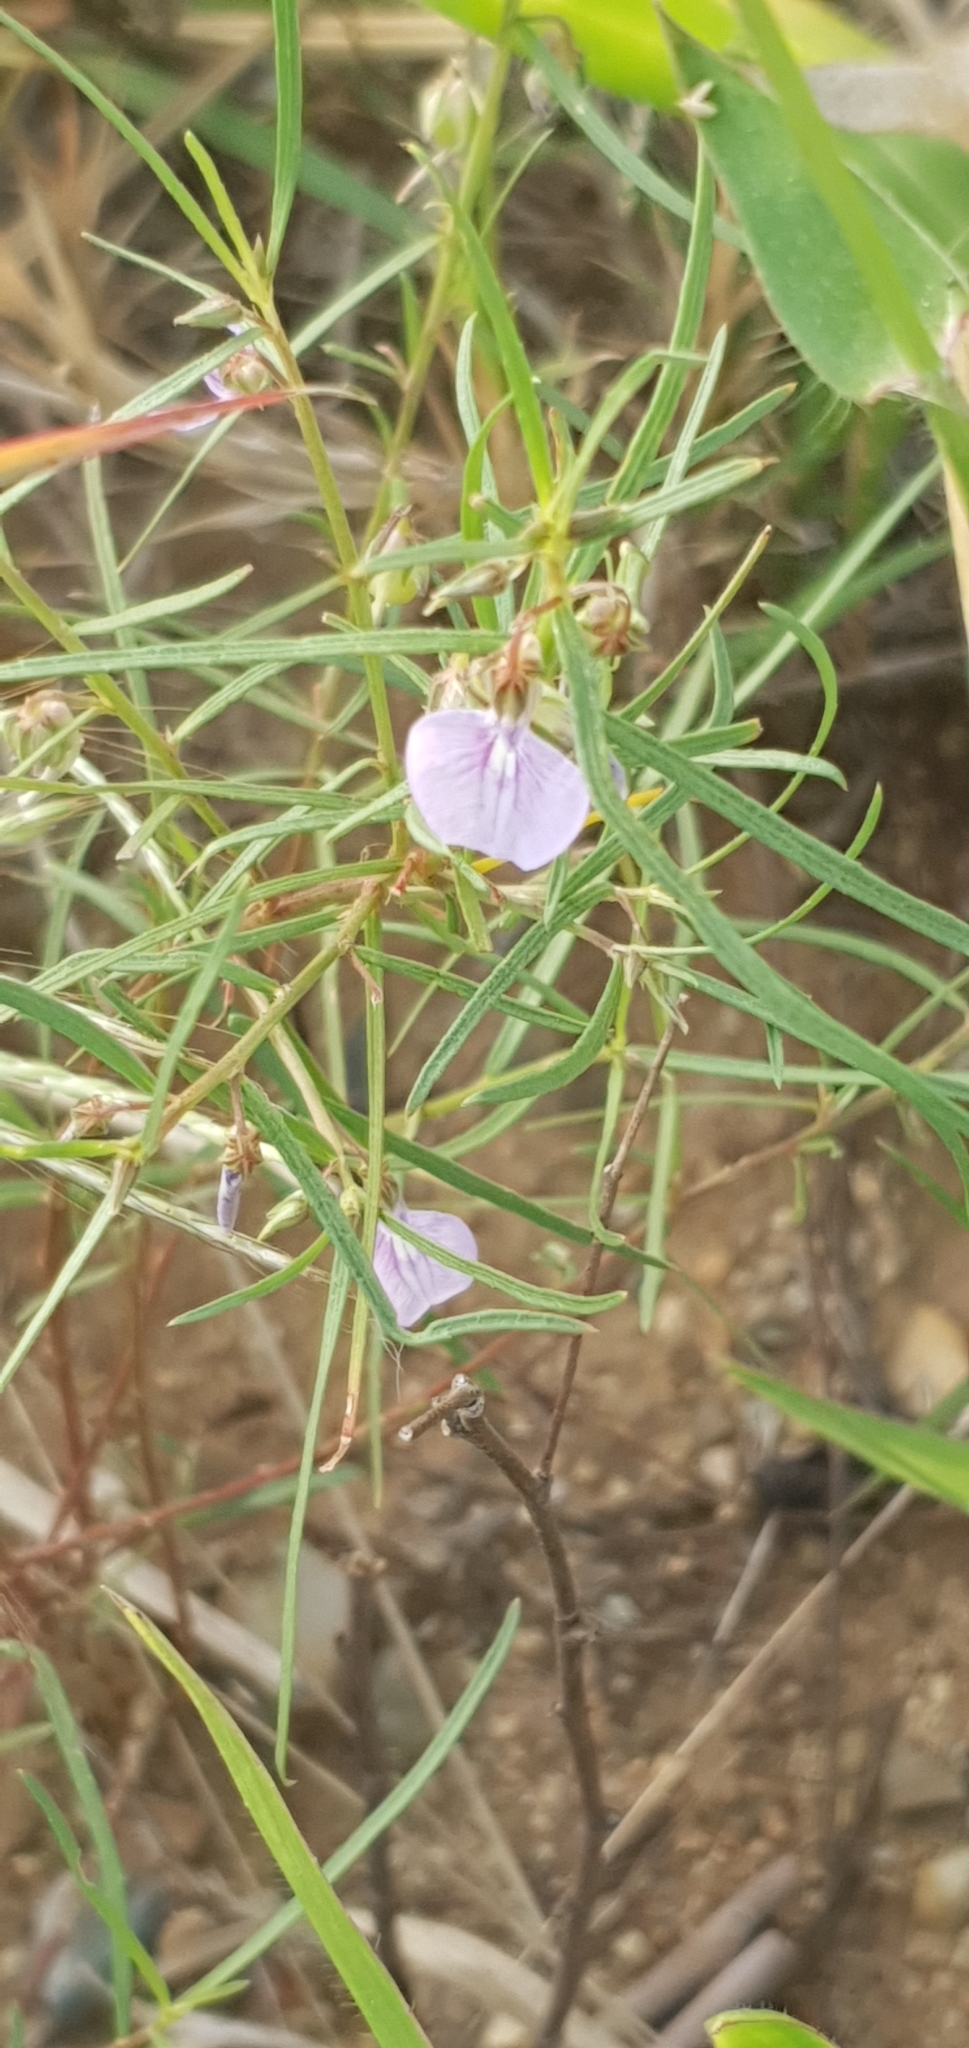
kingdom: Plantae
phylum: Tracheophyta
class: Magnoliopsida
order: Malpighiales
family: Violaceae
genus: Pigea
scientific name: Pigea enneasperma
